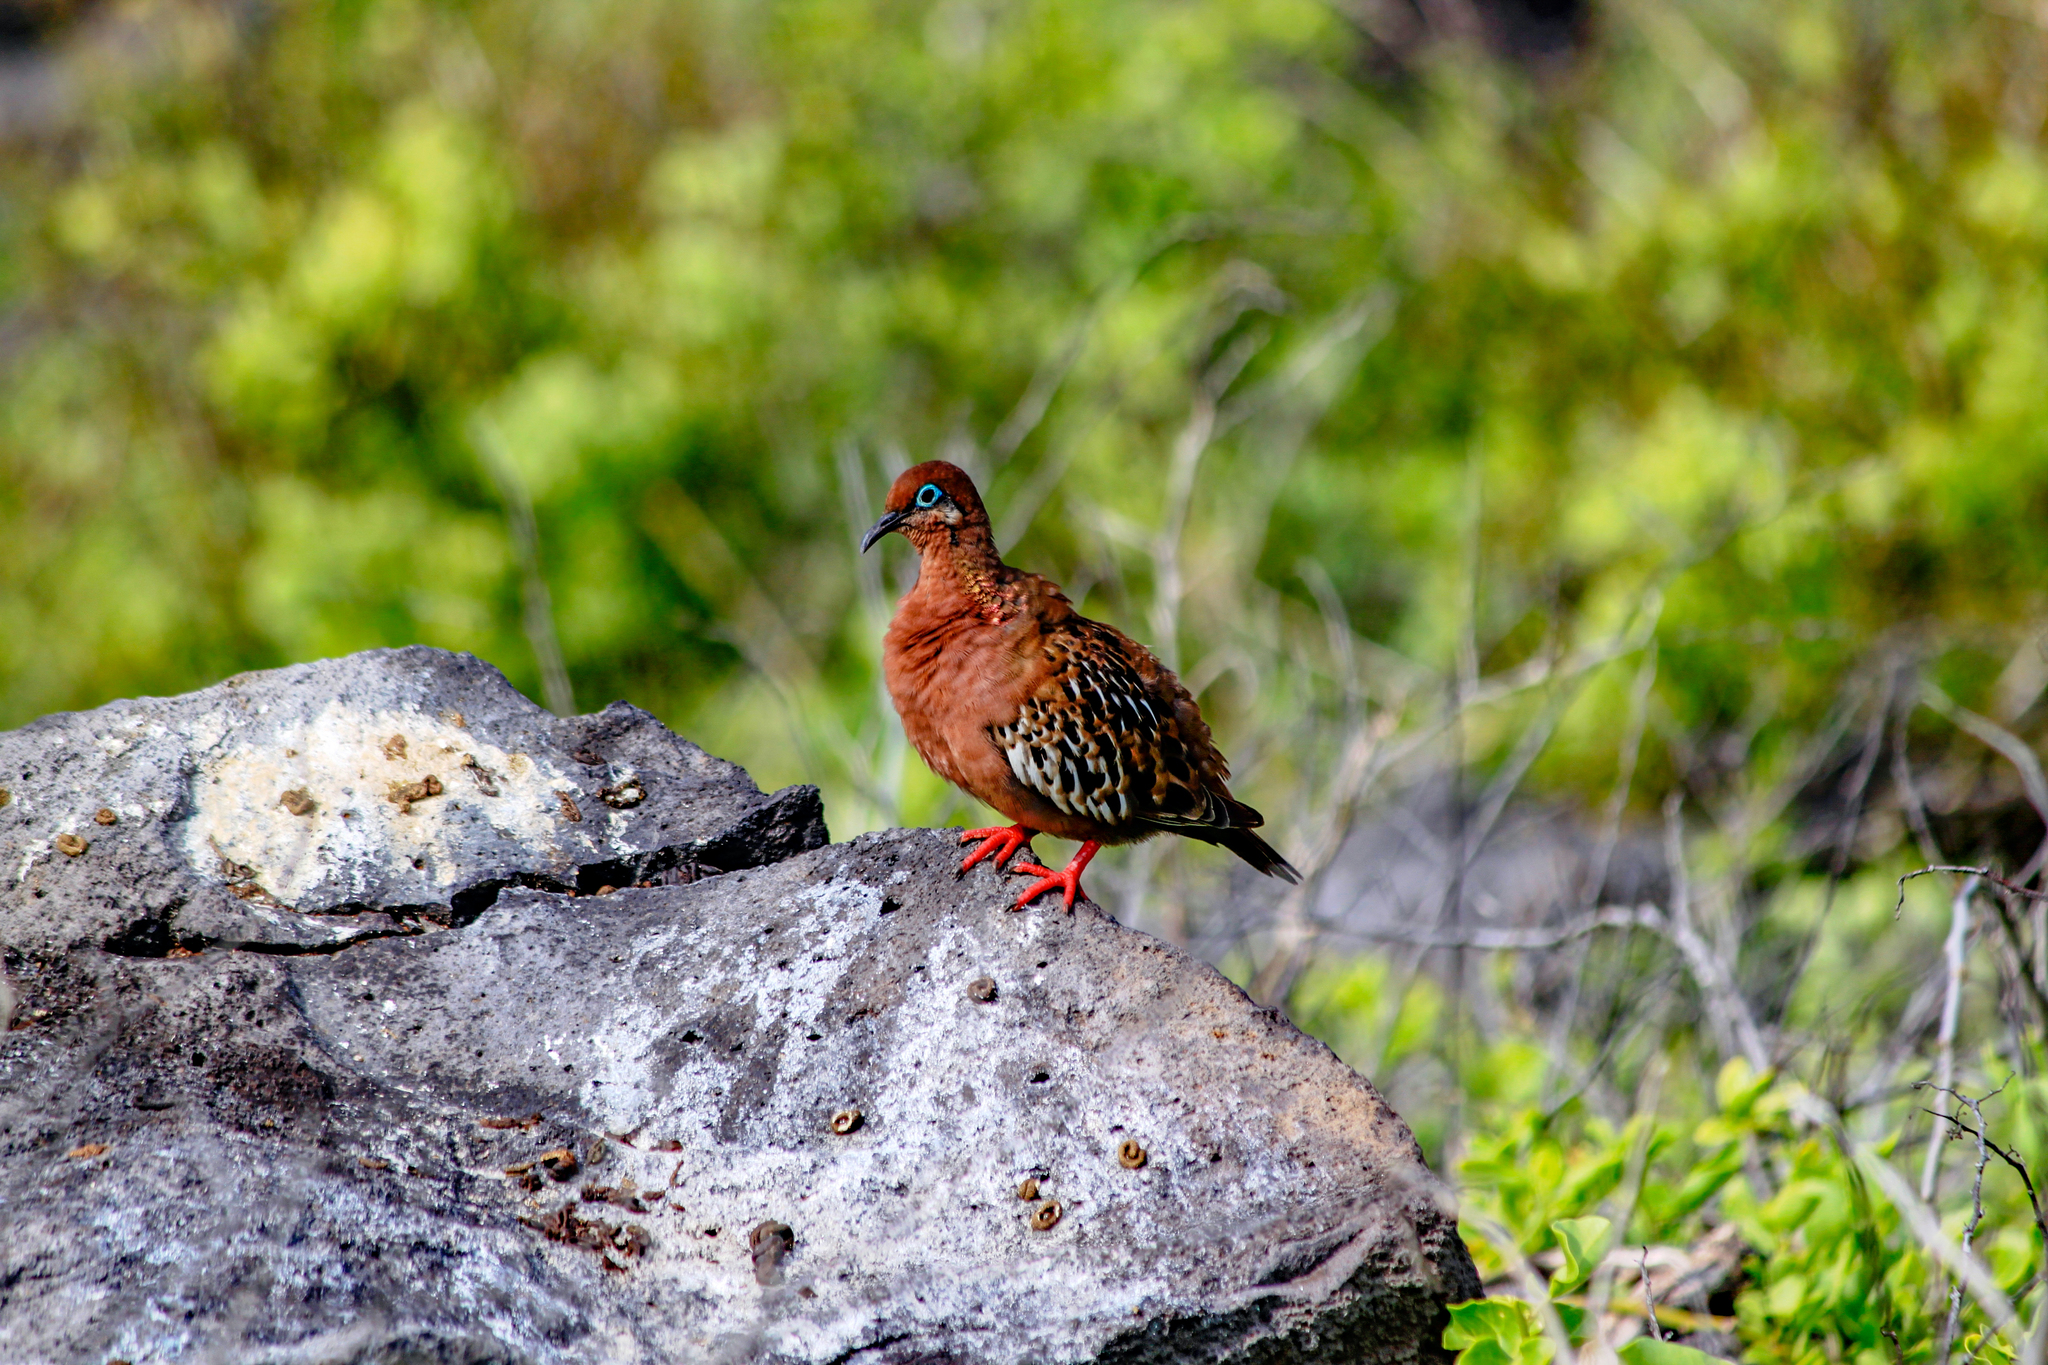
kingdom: Animalia
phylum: Chordata
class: Aves
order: Columbiformes
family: Columbidae
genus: Zenaida
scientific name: Zenaida galapagoensis
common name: Galapagos dove
